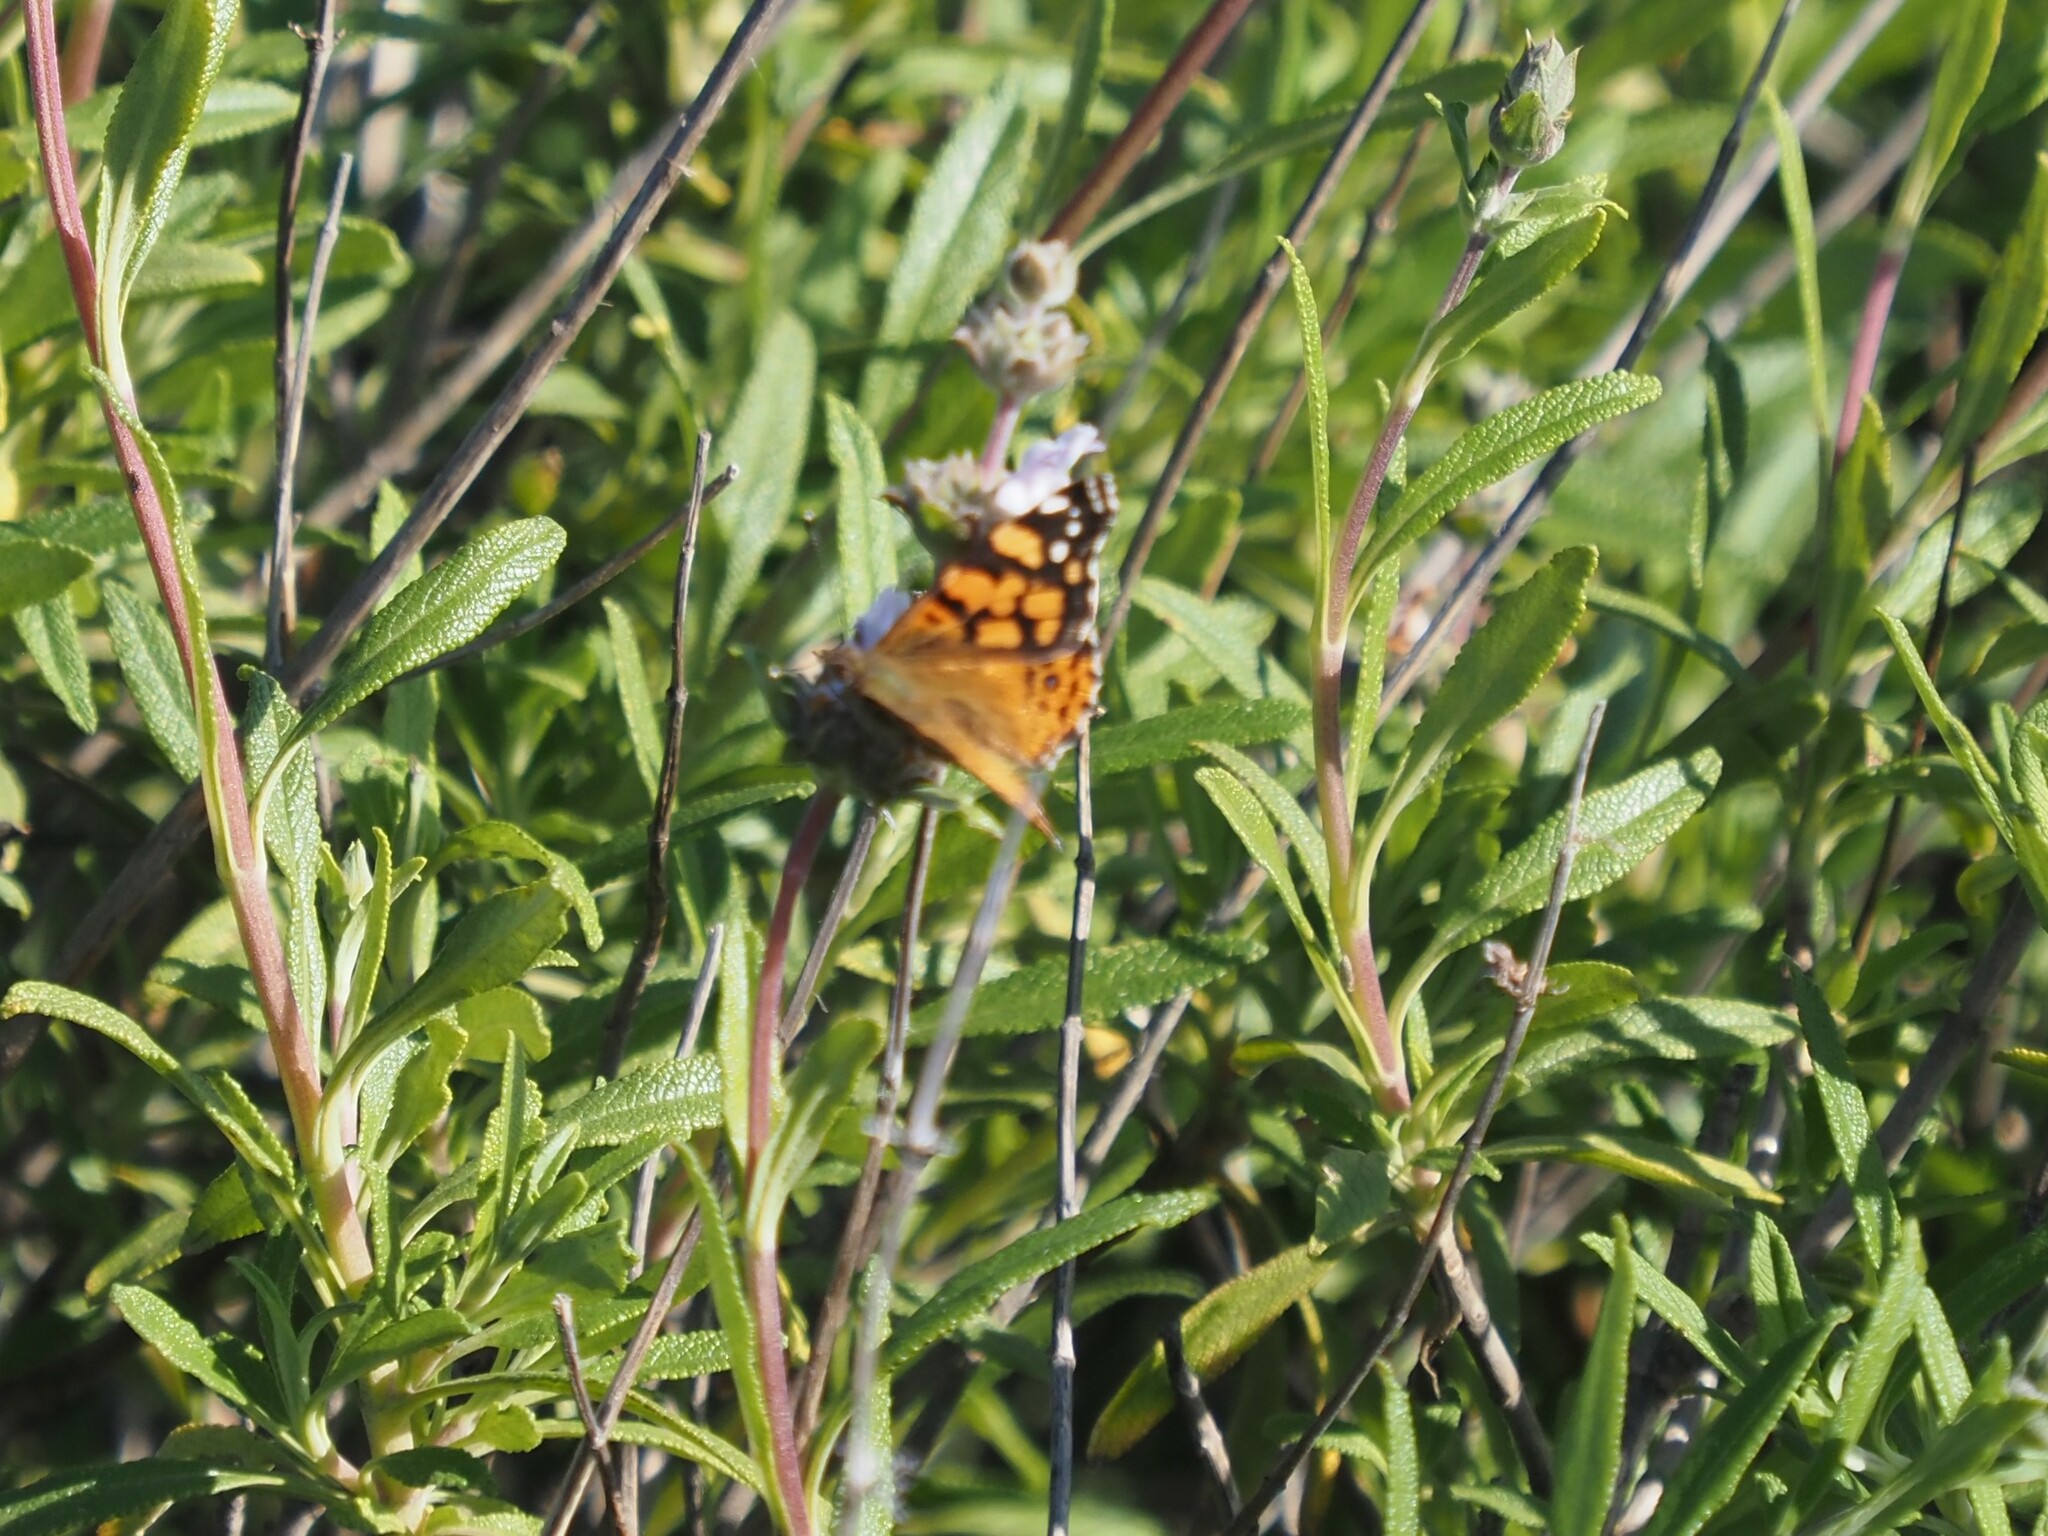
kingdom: Animalia
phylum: Arthropoda
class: Insecta
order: Lepidoptera
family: Nymphalidae
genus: Vanessa
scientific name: Vanessa annabella
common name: West coast lady
